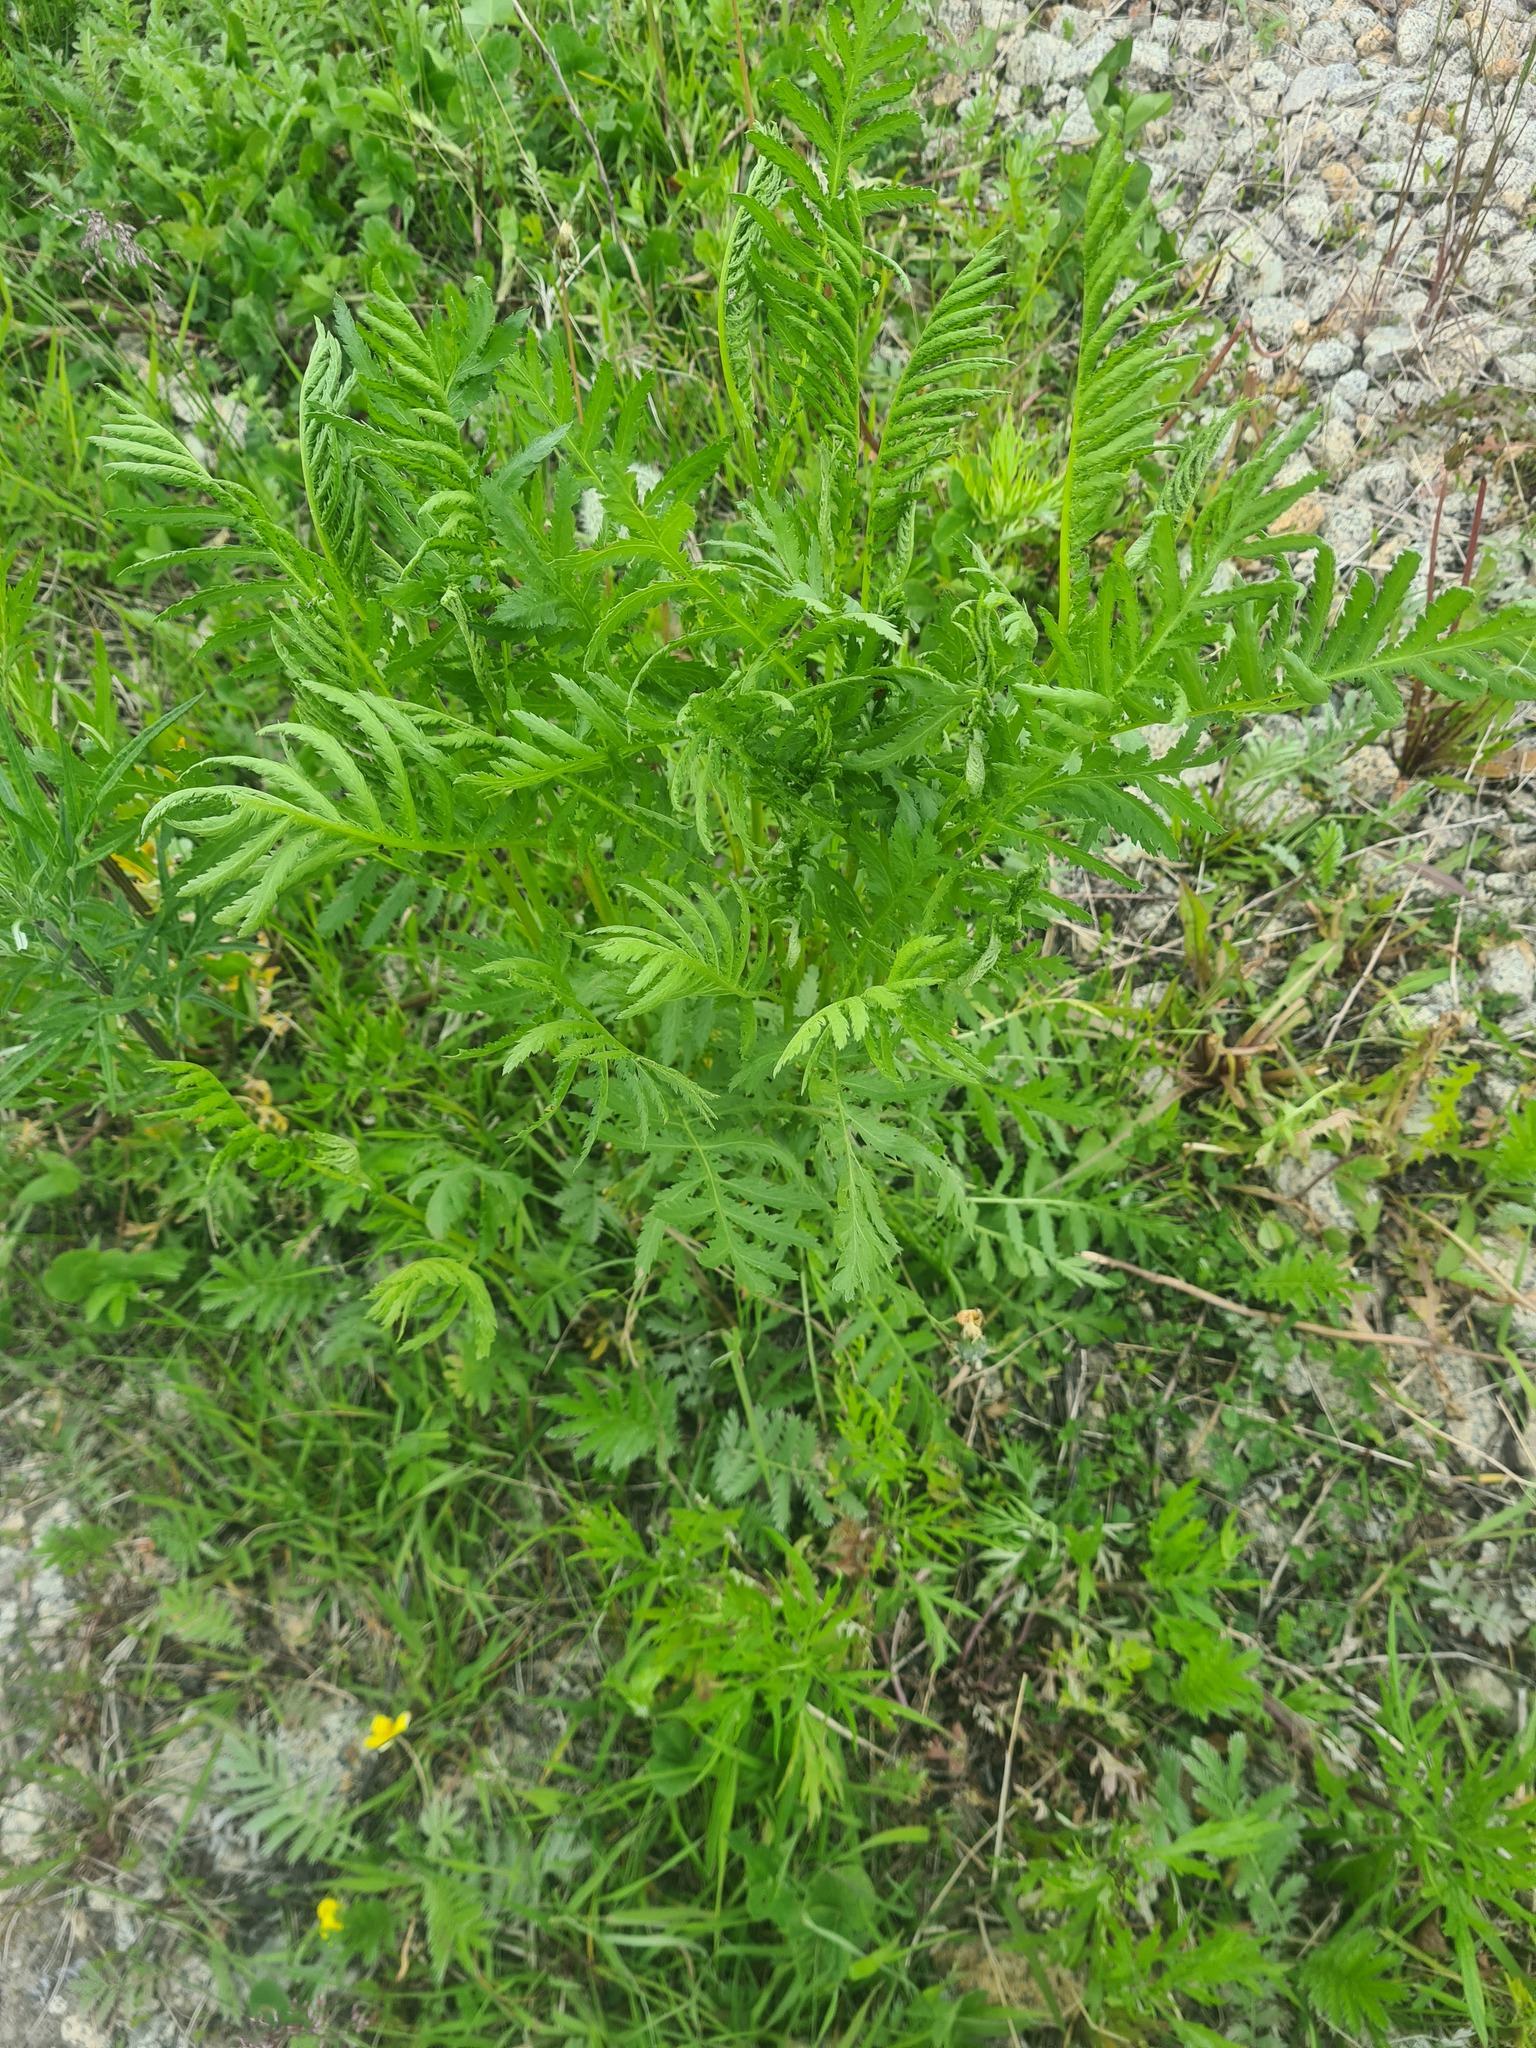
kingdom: Plantae
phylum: Tracheophyta
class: Magnoliopsida
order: Asterales
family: Asteraceae
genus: Tanacetum
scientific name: Tanacetum vulgare
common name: Common tansy
